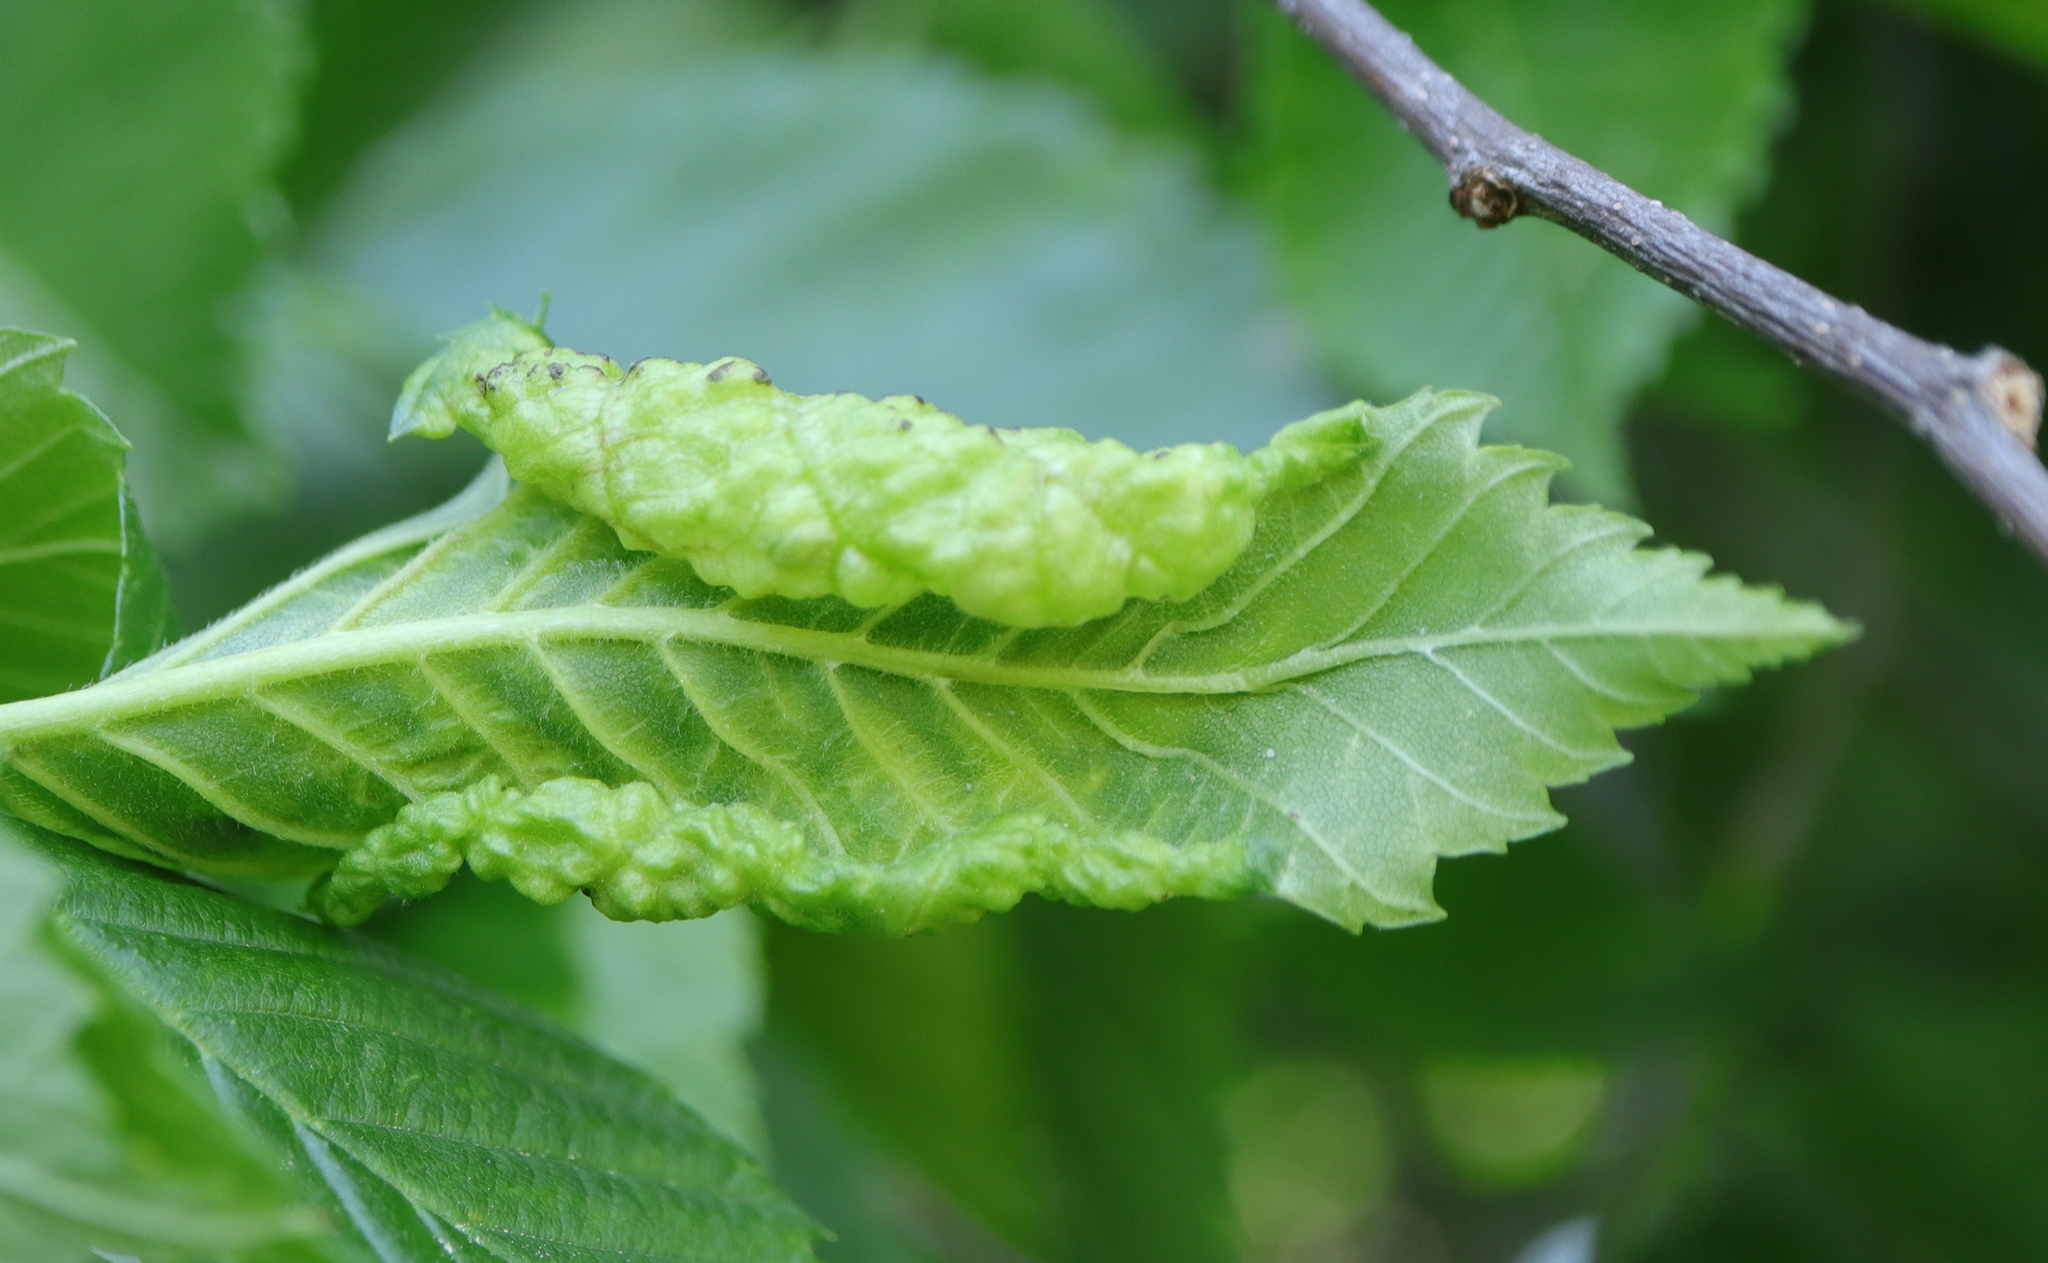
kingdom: Animalia
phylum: Arthropoda
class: Insecta
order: Hemiptera
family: Aphididae
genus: Eriosoma
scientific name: Eriosoma americanum
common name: Woolly elm aphid
